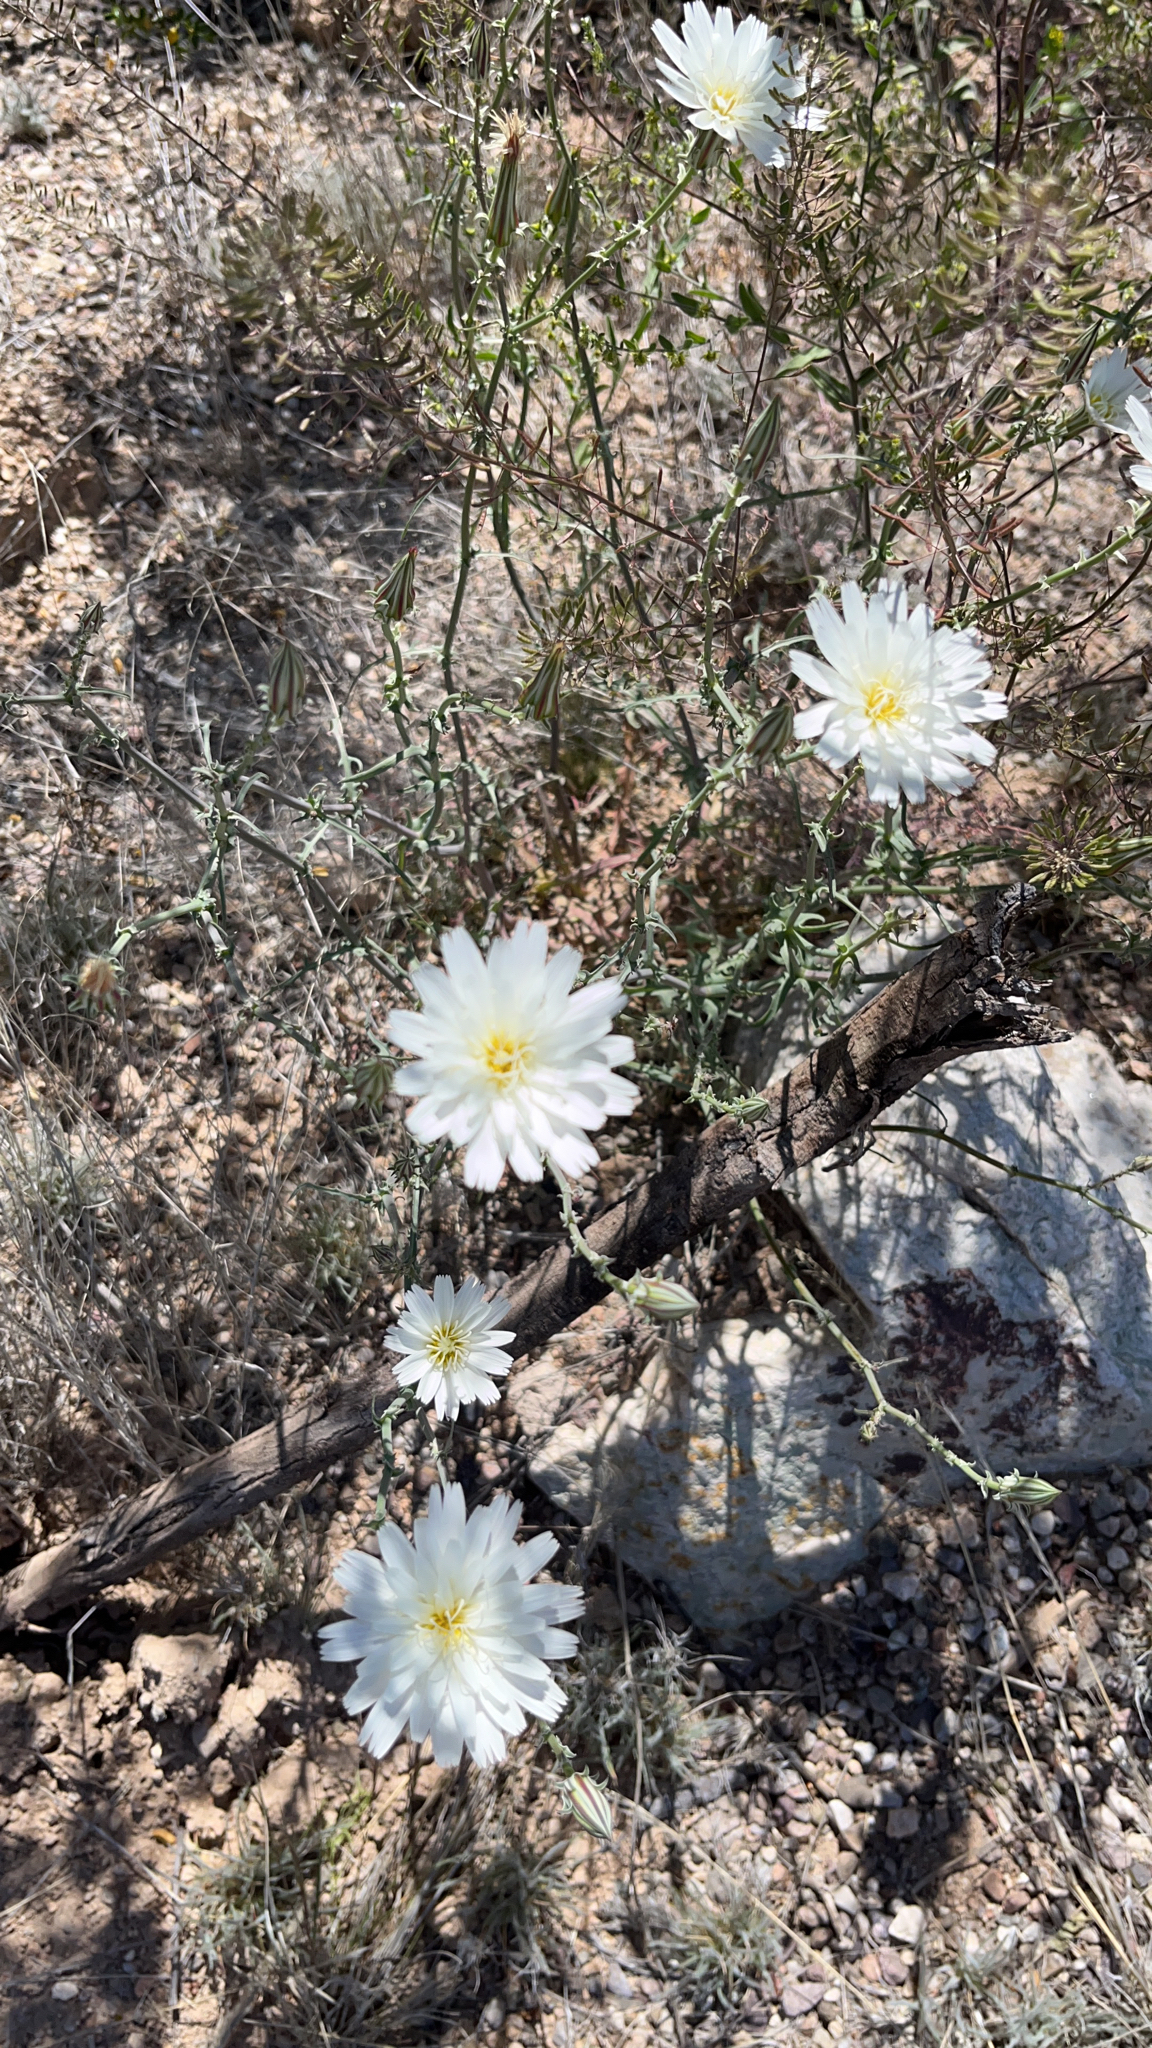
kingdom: Plantae
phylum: Tracheophyta
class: Magnoliopsida
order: Asterales
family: Asteraceae
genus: Rafinesquia
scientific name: Rafinesquia neomexicana
